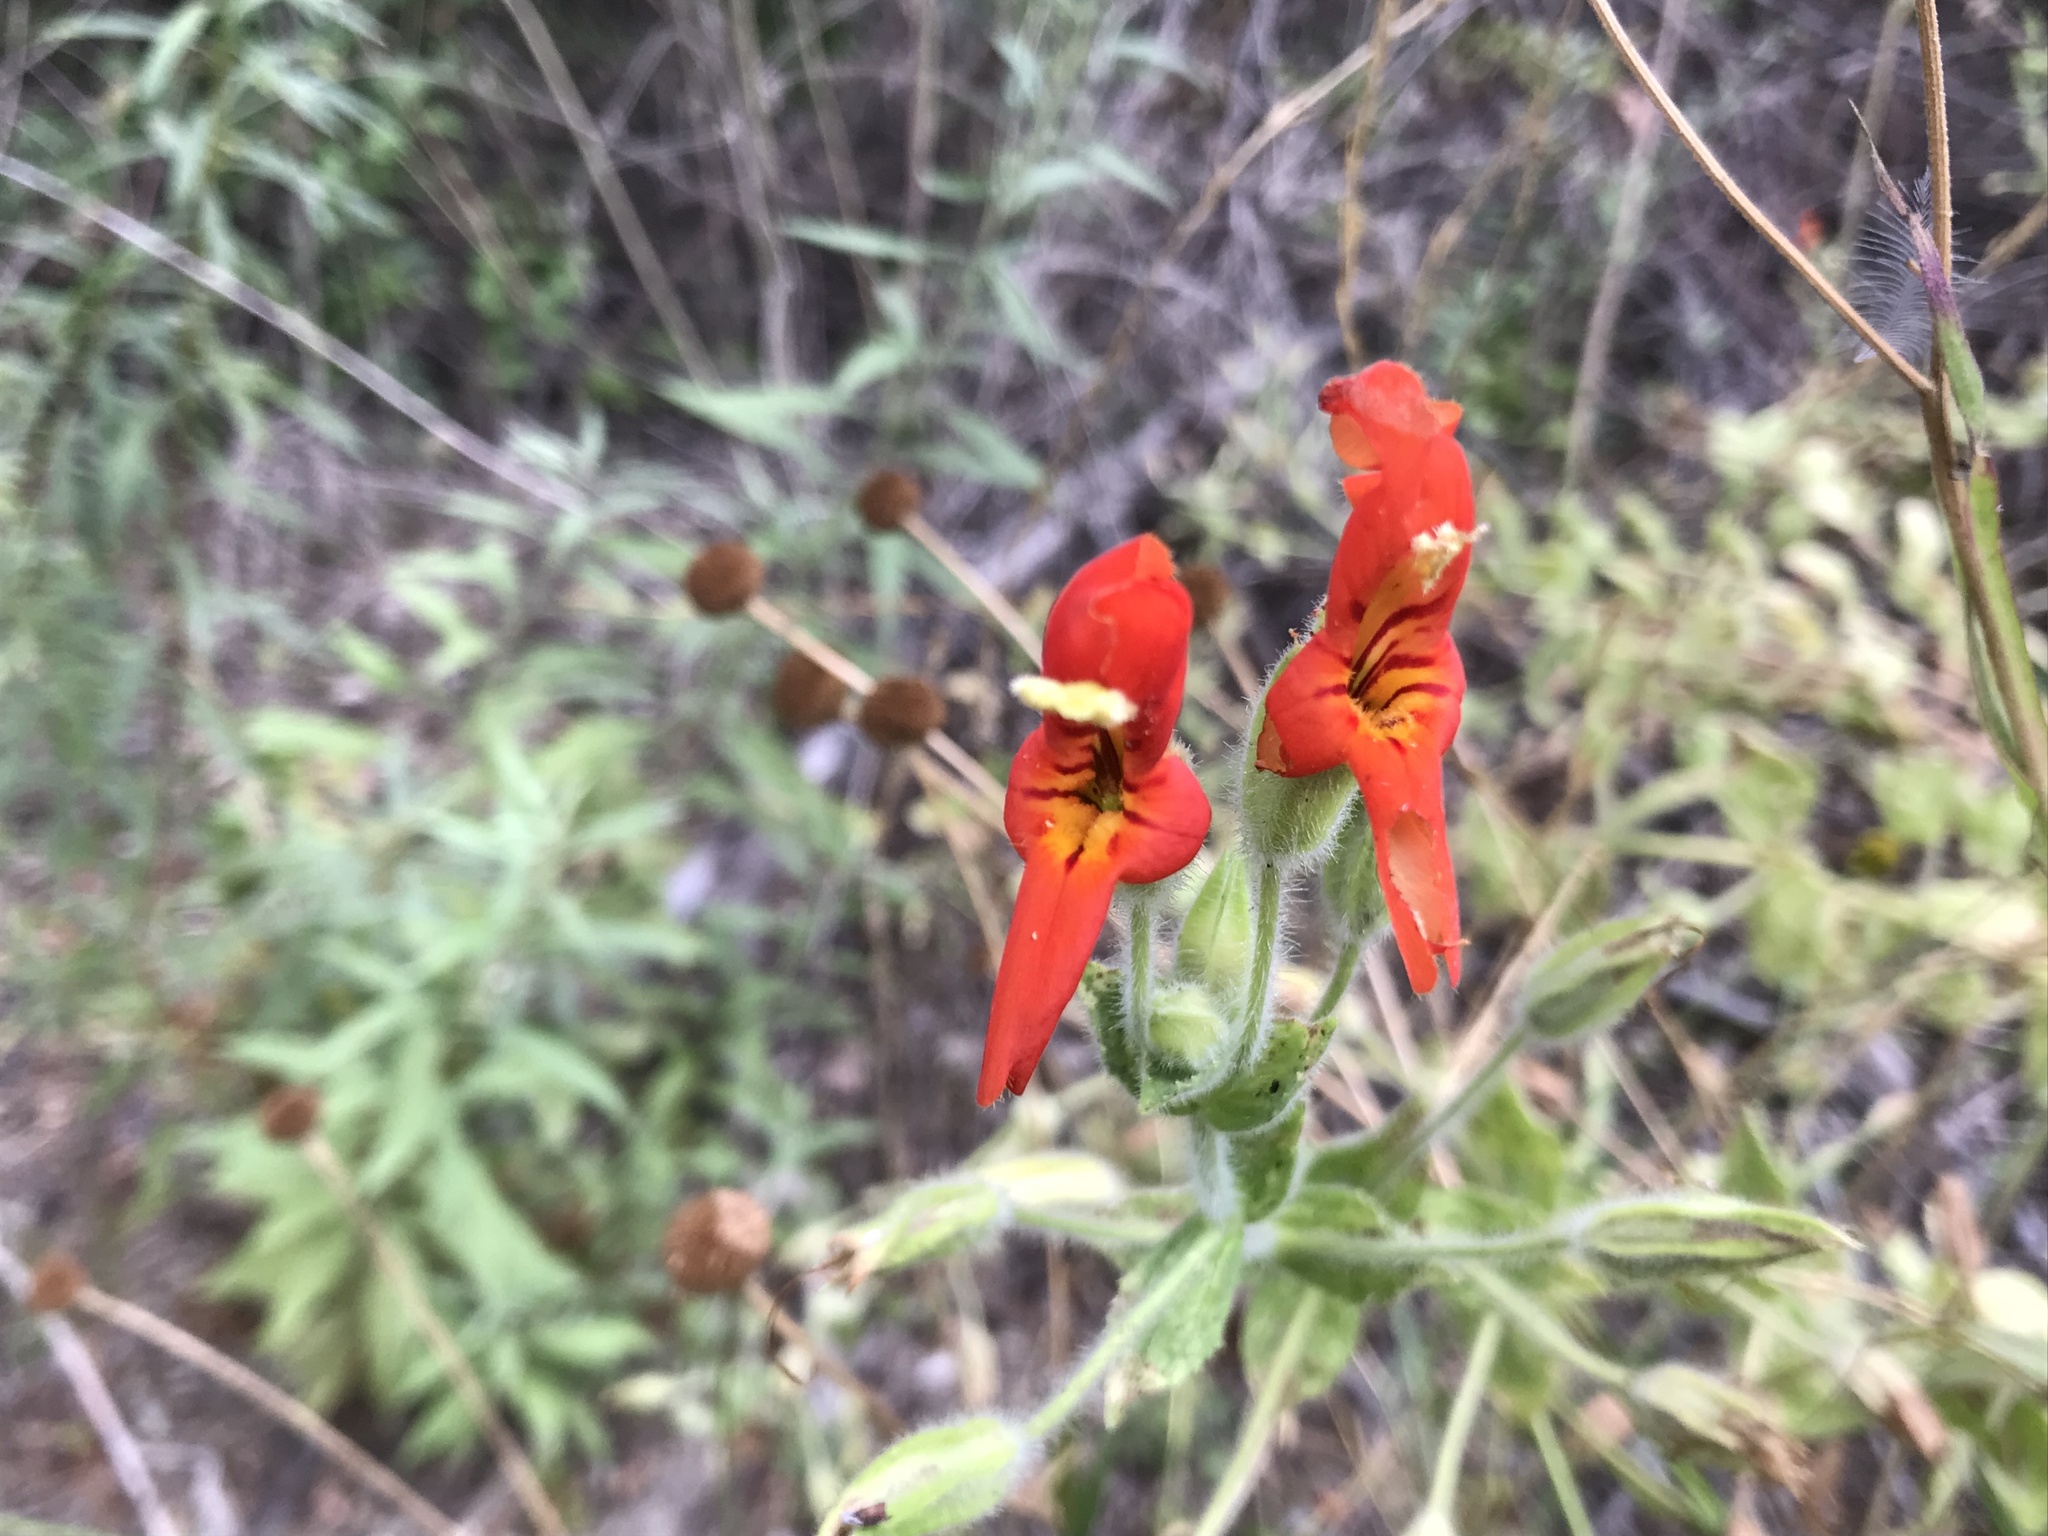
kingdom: Plantae
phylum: Tracheophyta
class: Magnoliopsida
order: Lamiales
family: Phrymaceae
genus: Erythranthe
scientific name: Erythranthe cardinalis
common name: Scarlet monkey-flower
